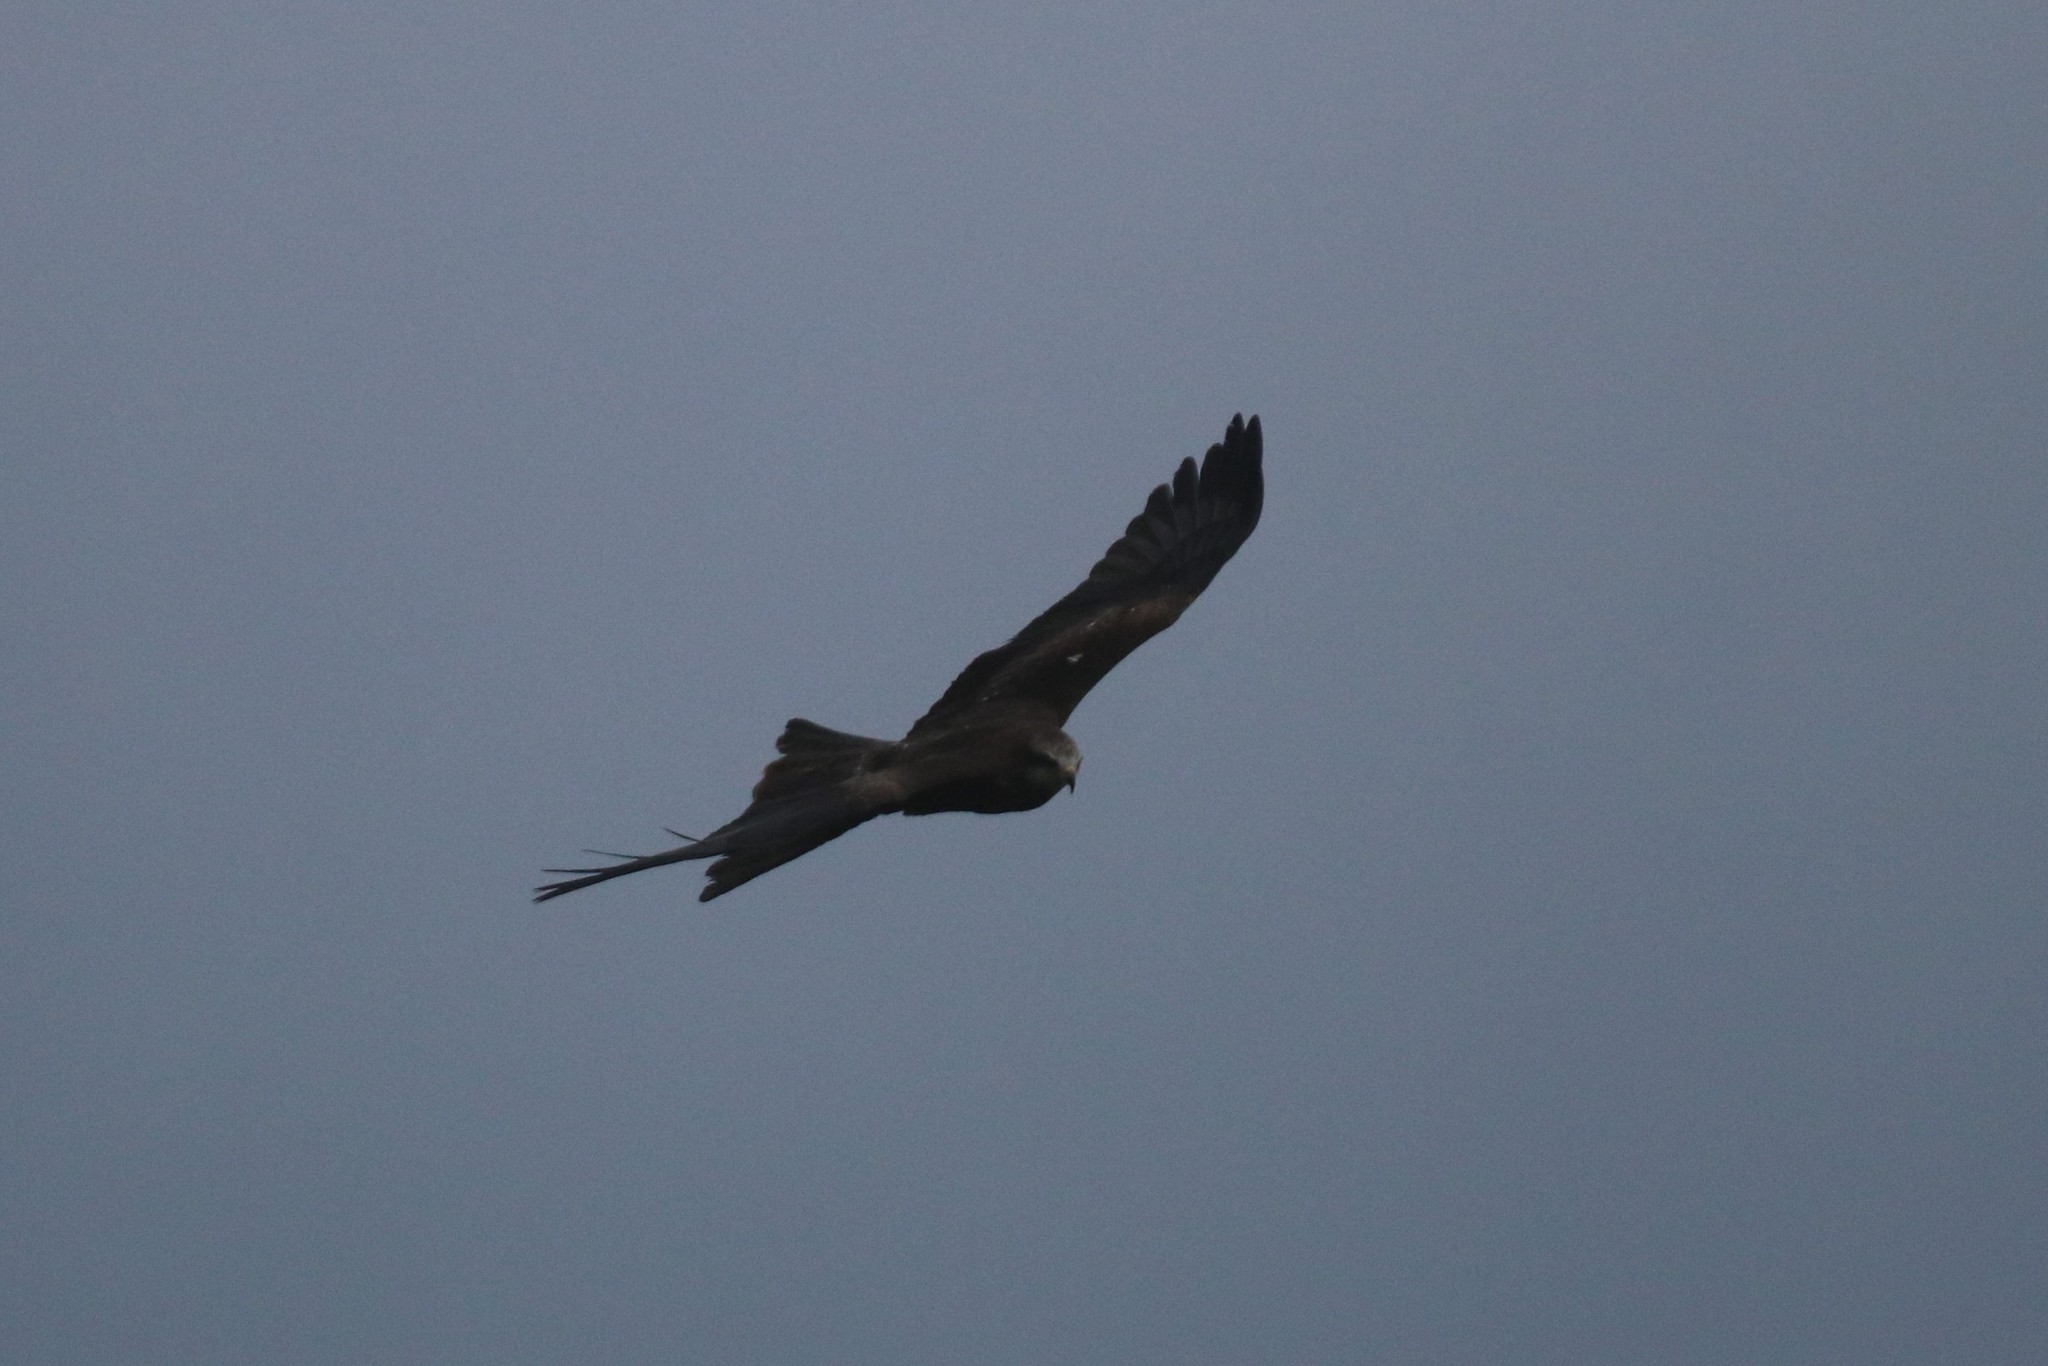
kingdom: Animalia
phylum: Chordata
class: Aves
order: Accipitriformes
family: Accipitridae
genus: Milvus
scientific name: Milvus migrans
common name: Black kite
